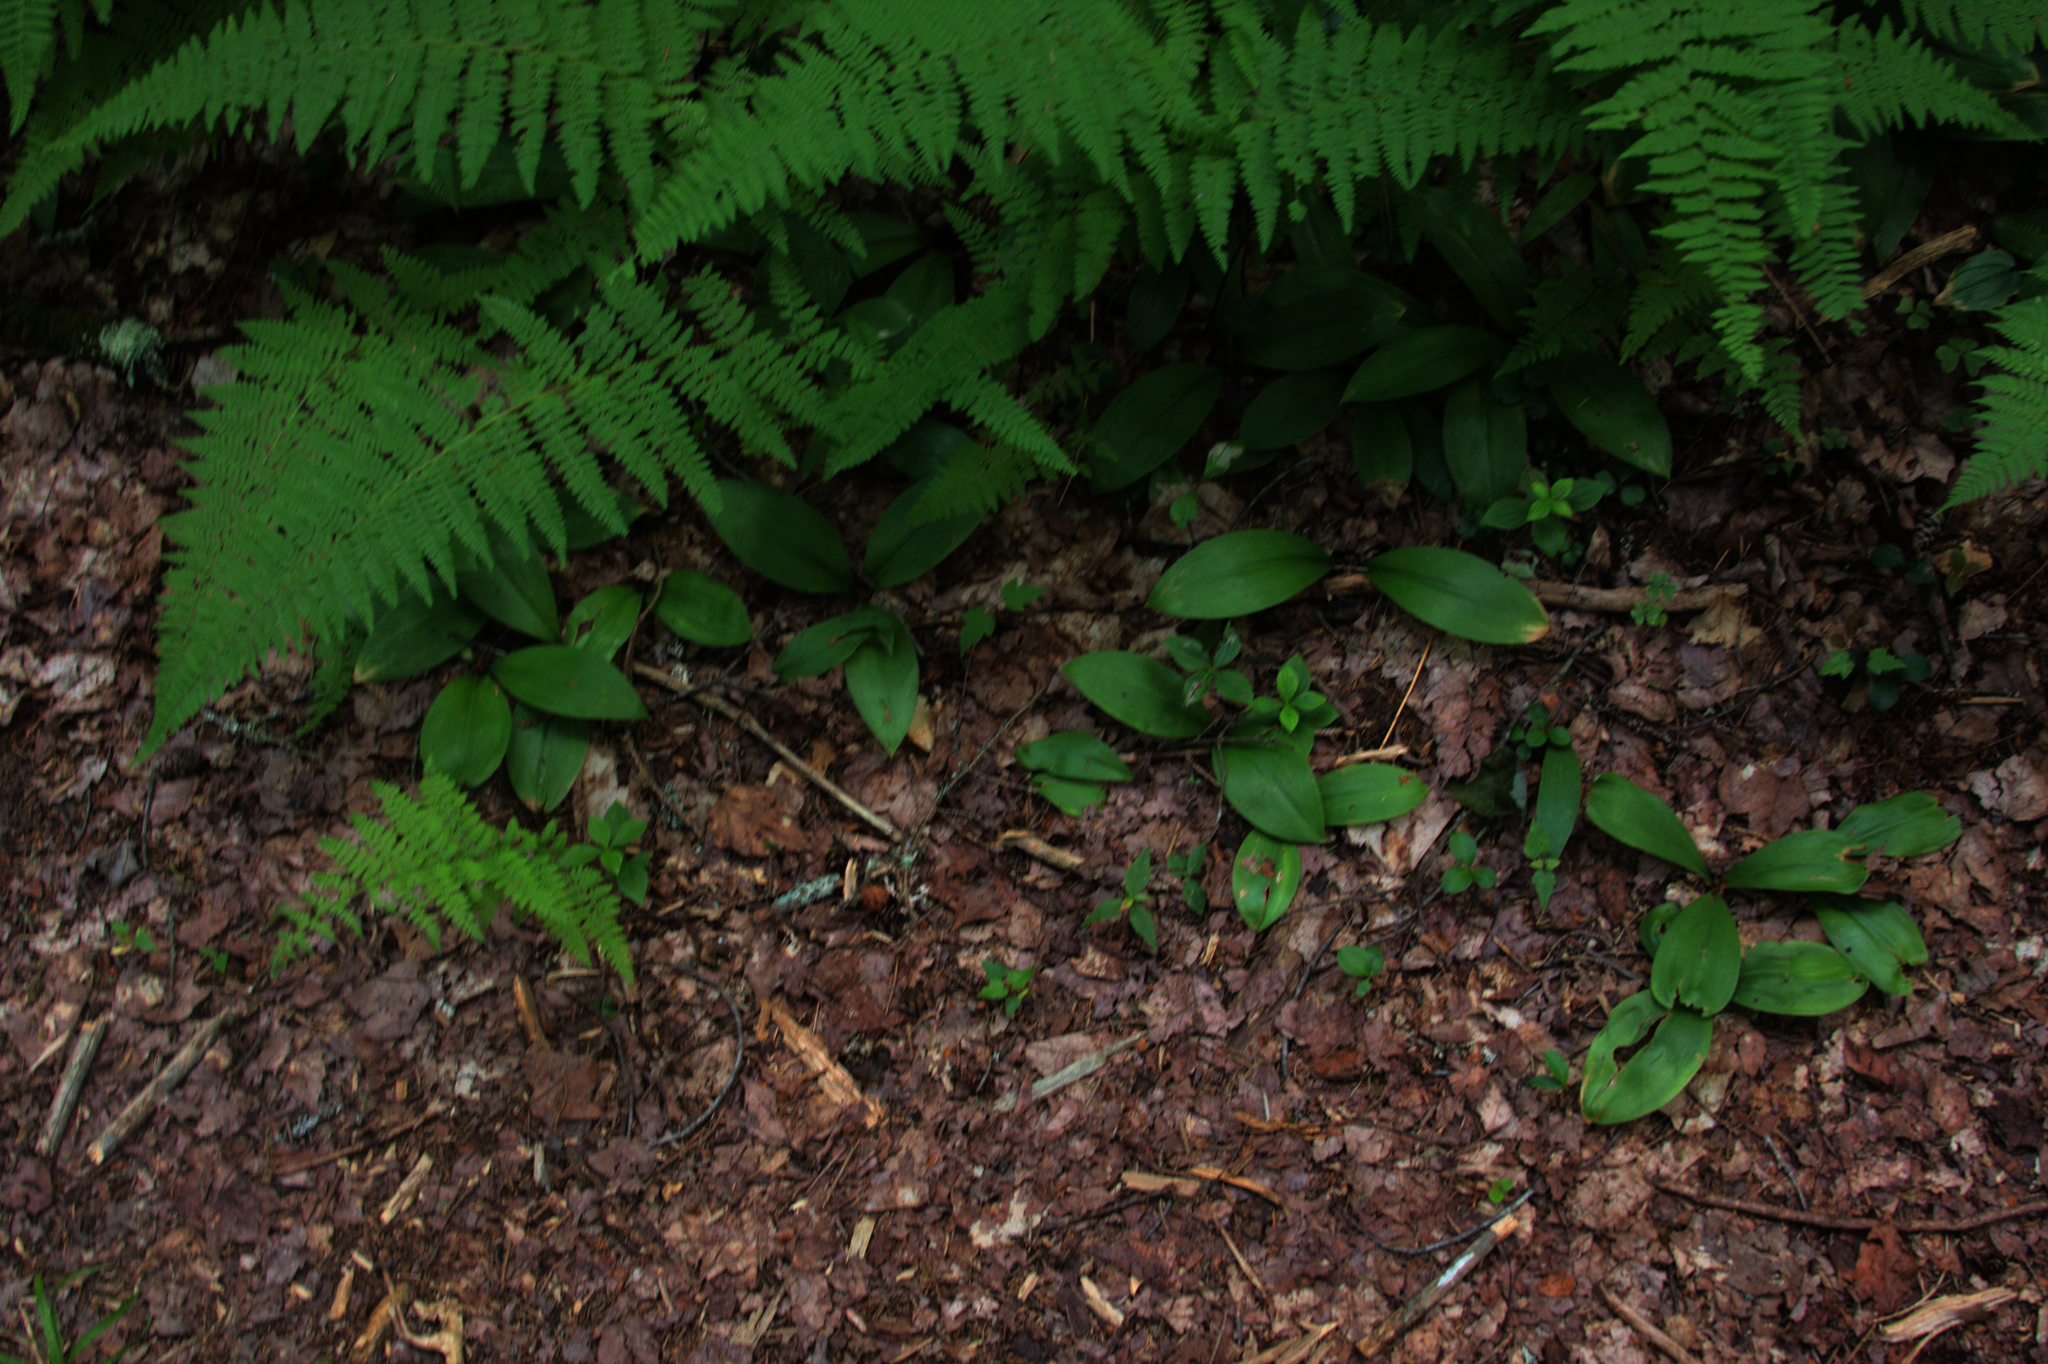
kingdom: Plantae
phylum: Tracheophyta
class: Liliopsida
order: Liliales
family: Liliaceae
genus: Clintonia
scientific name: Clintonia borealis
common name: Yellow clintonia
